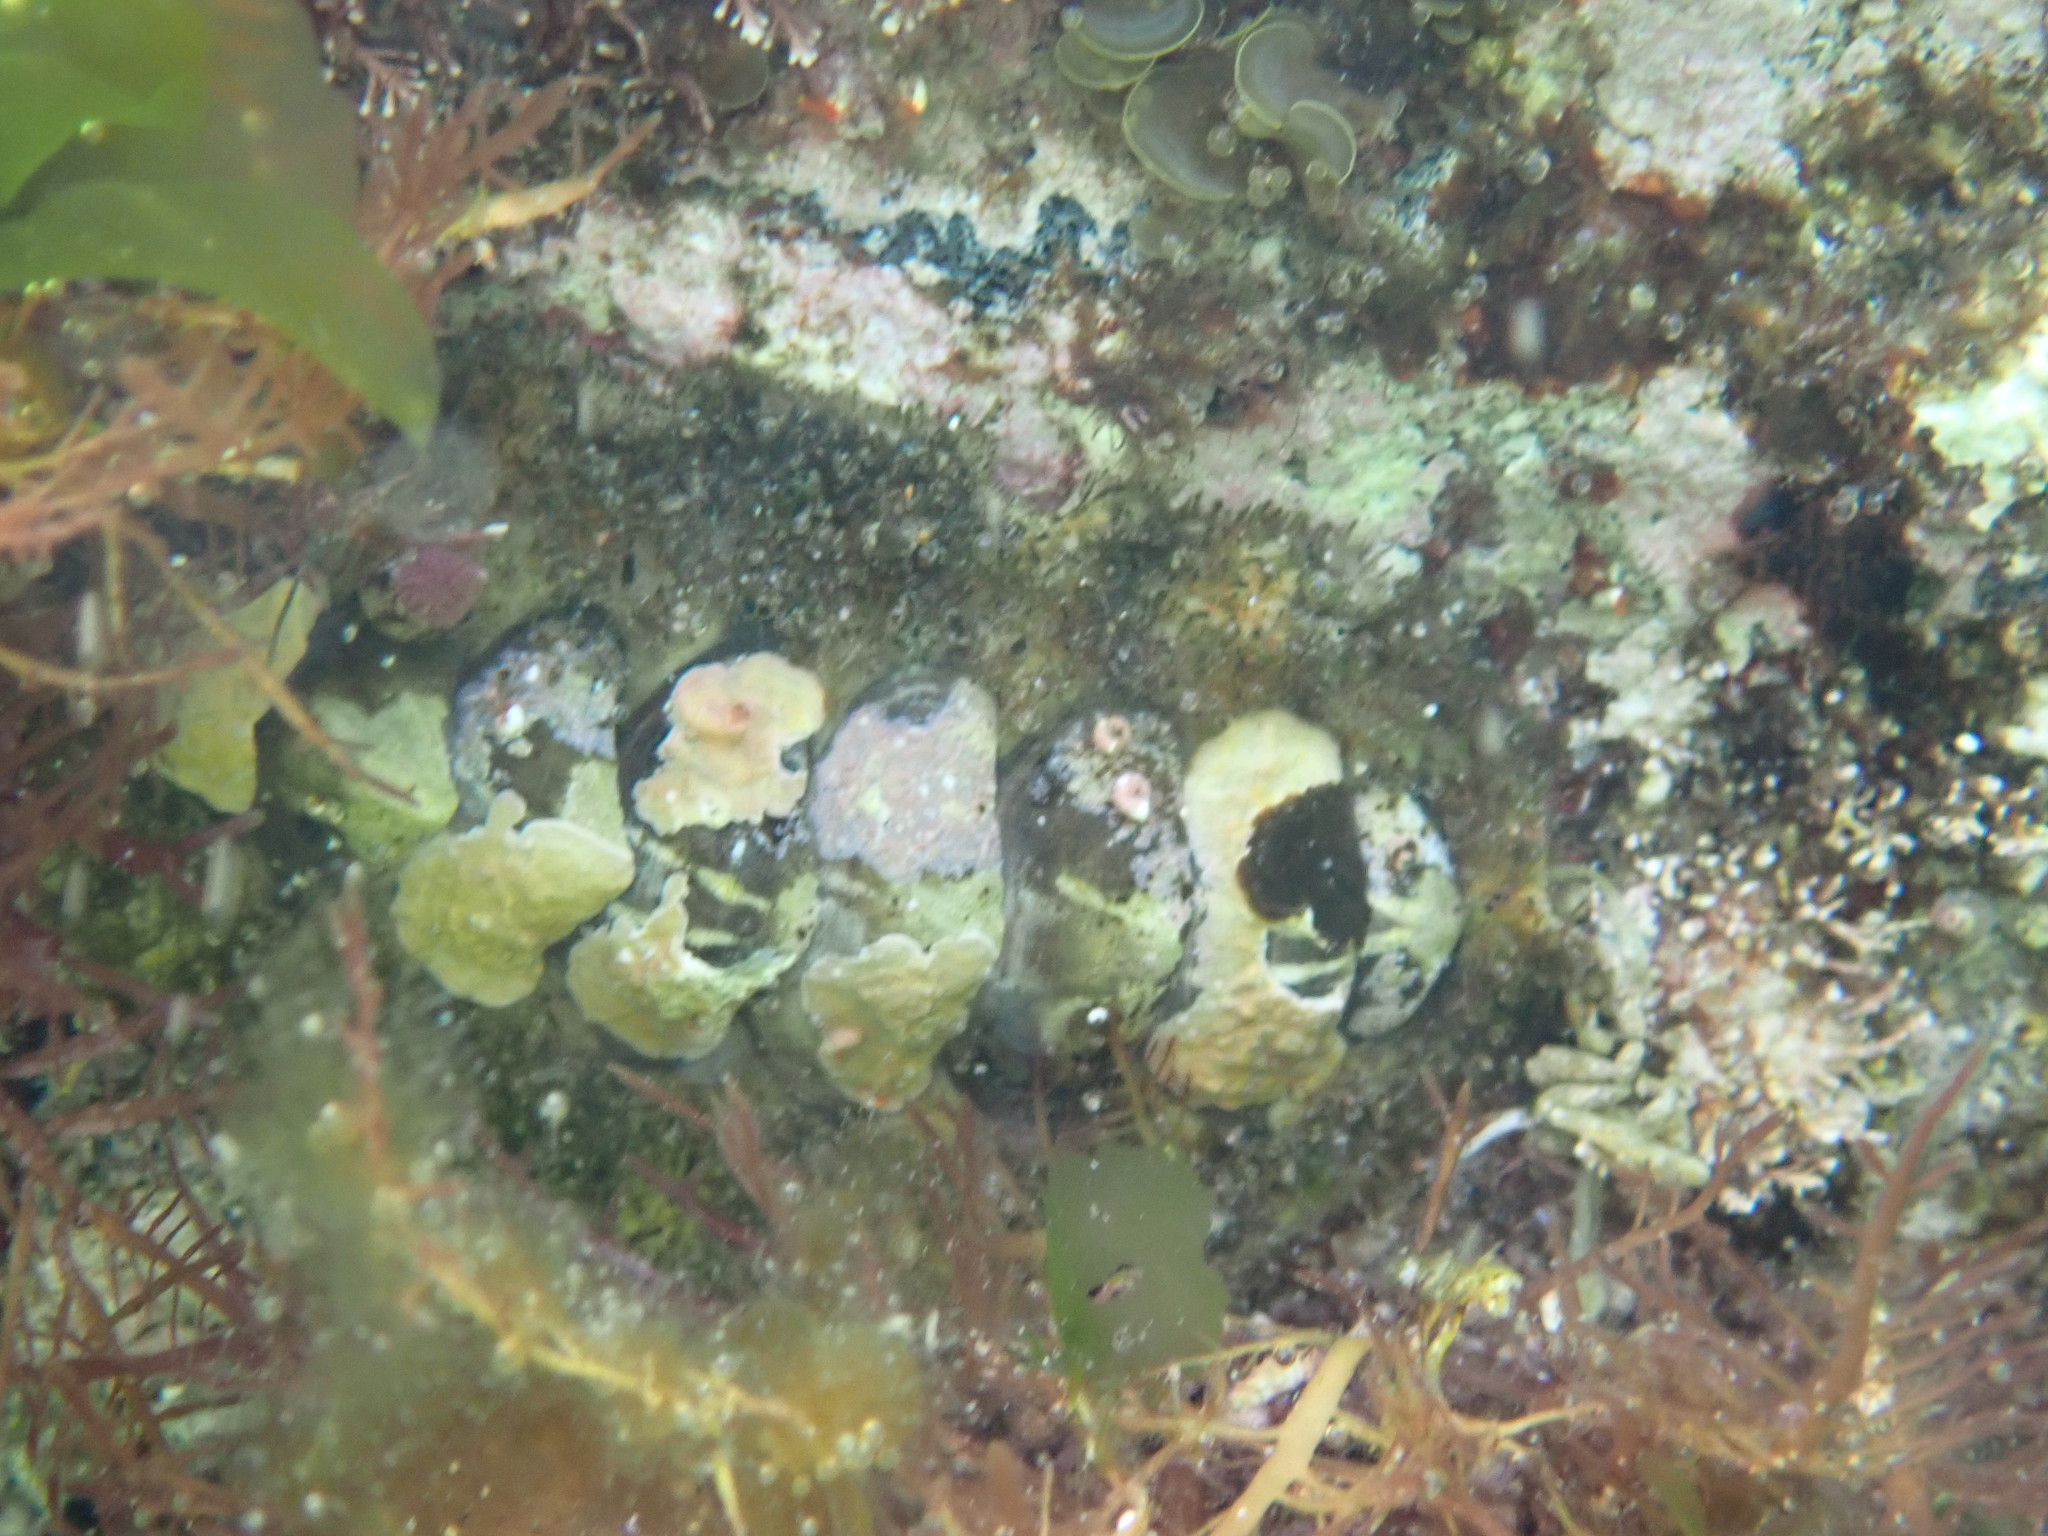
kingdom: Animalia
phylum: Mollusca
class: Polyplacophora
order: Chitonida
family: Mopaliidae
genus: Plaxiphora
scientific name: Plaxiphora albida
